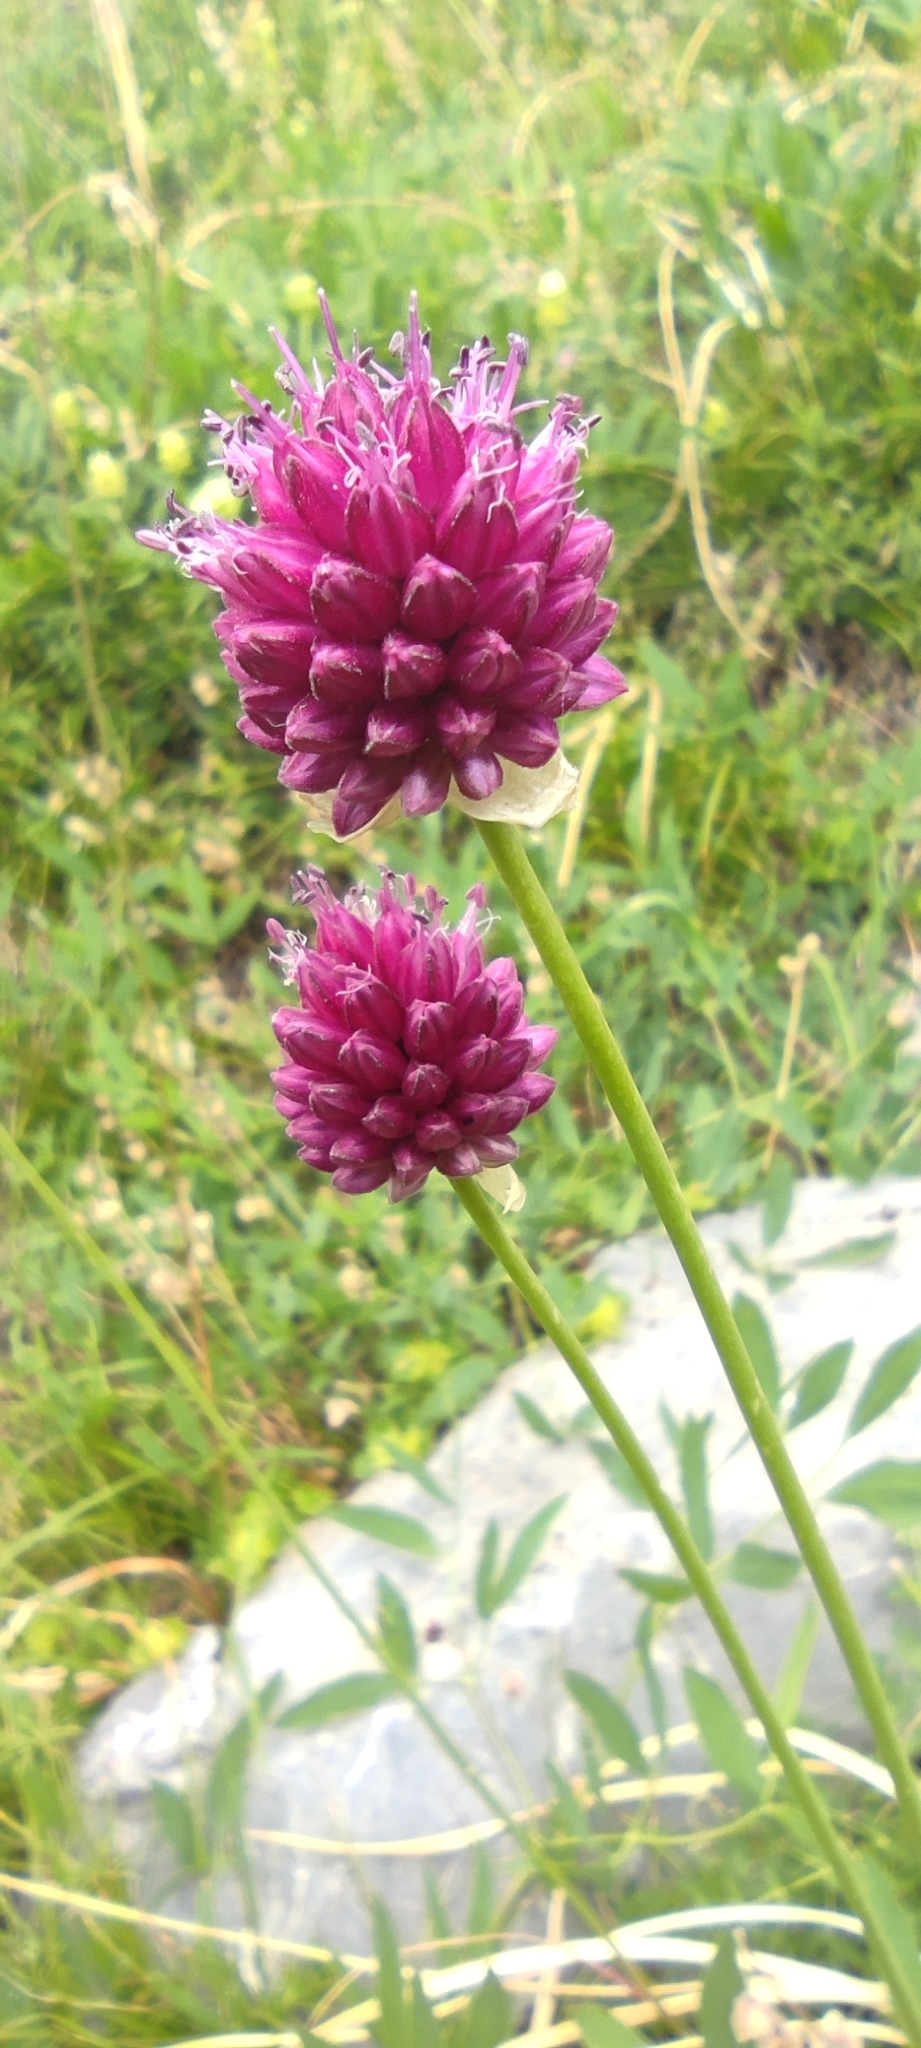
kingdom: Plantae
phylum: Tracheophyta
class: Liliopsida
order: Asparagales
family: Amaryllidaceae
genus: Allium
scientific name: Allium sphaerocephalon
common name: Round-headed leek
